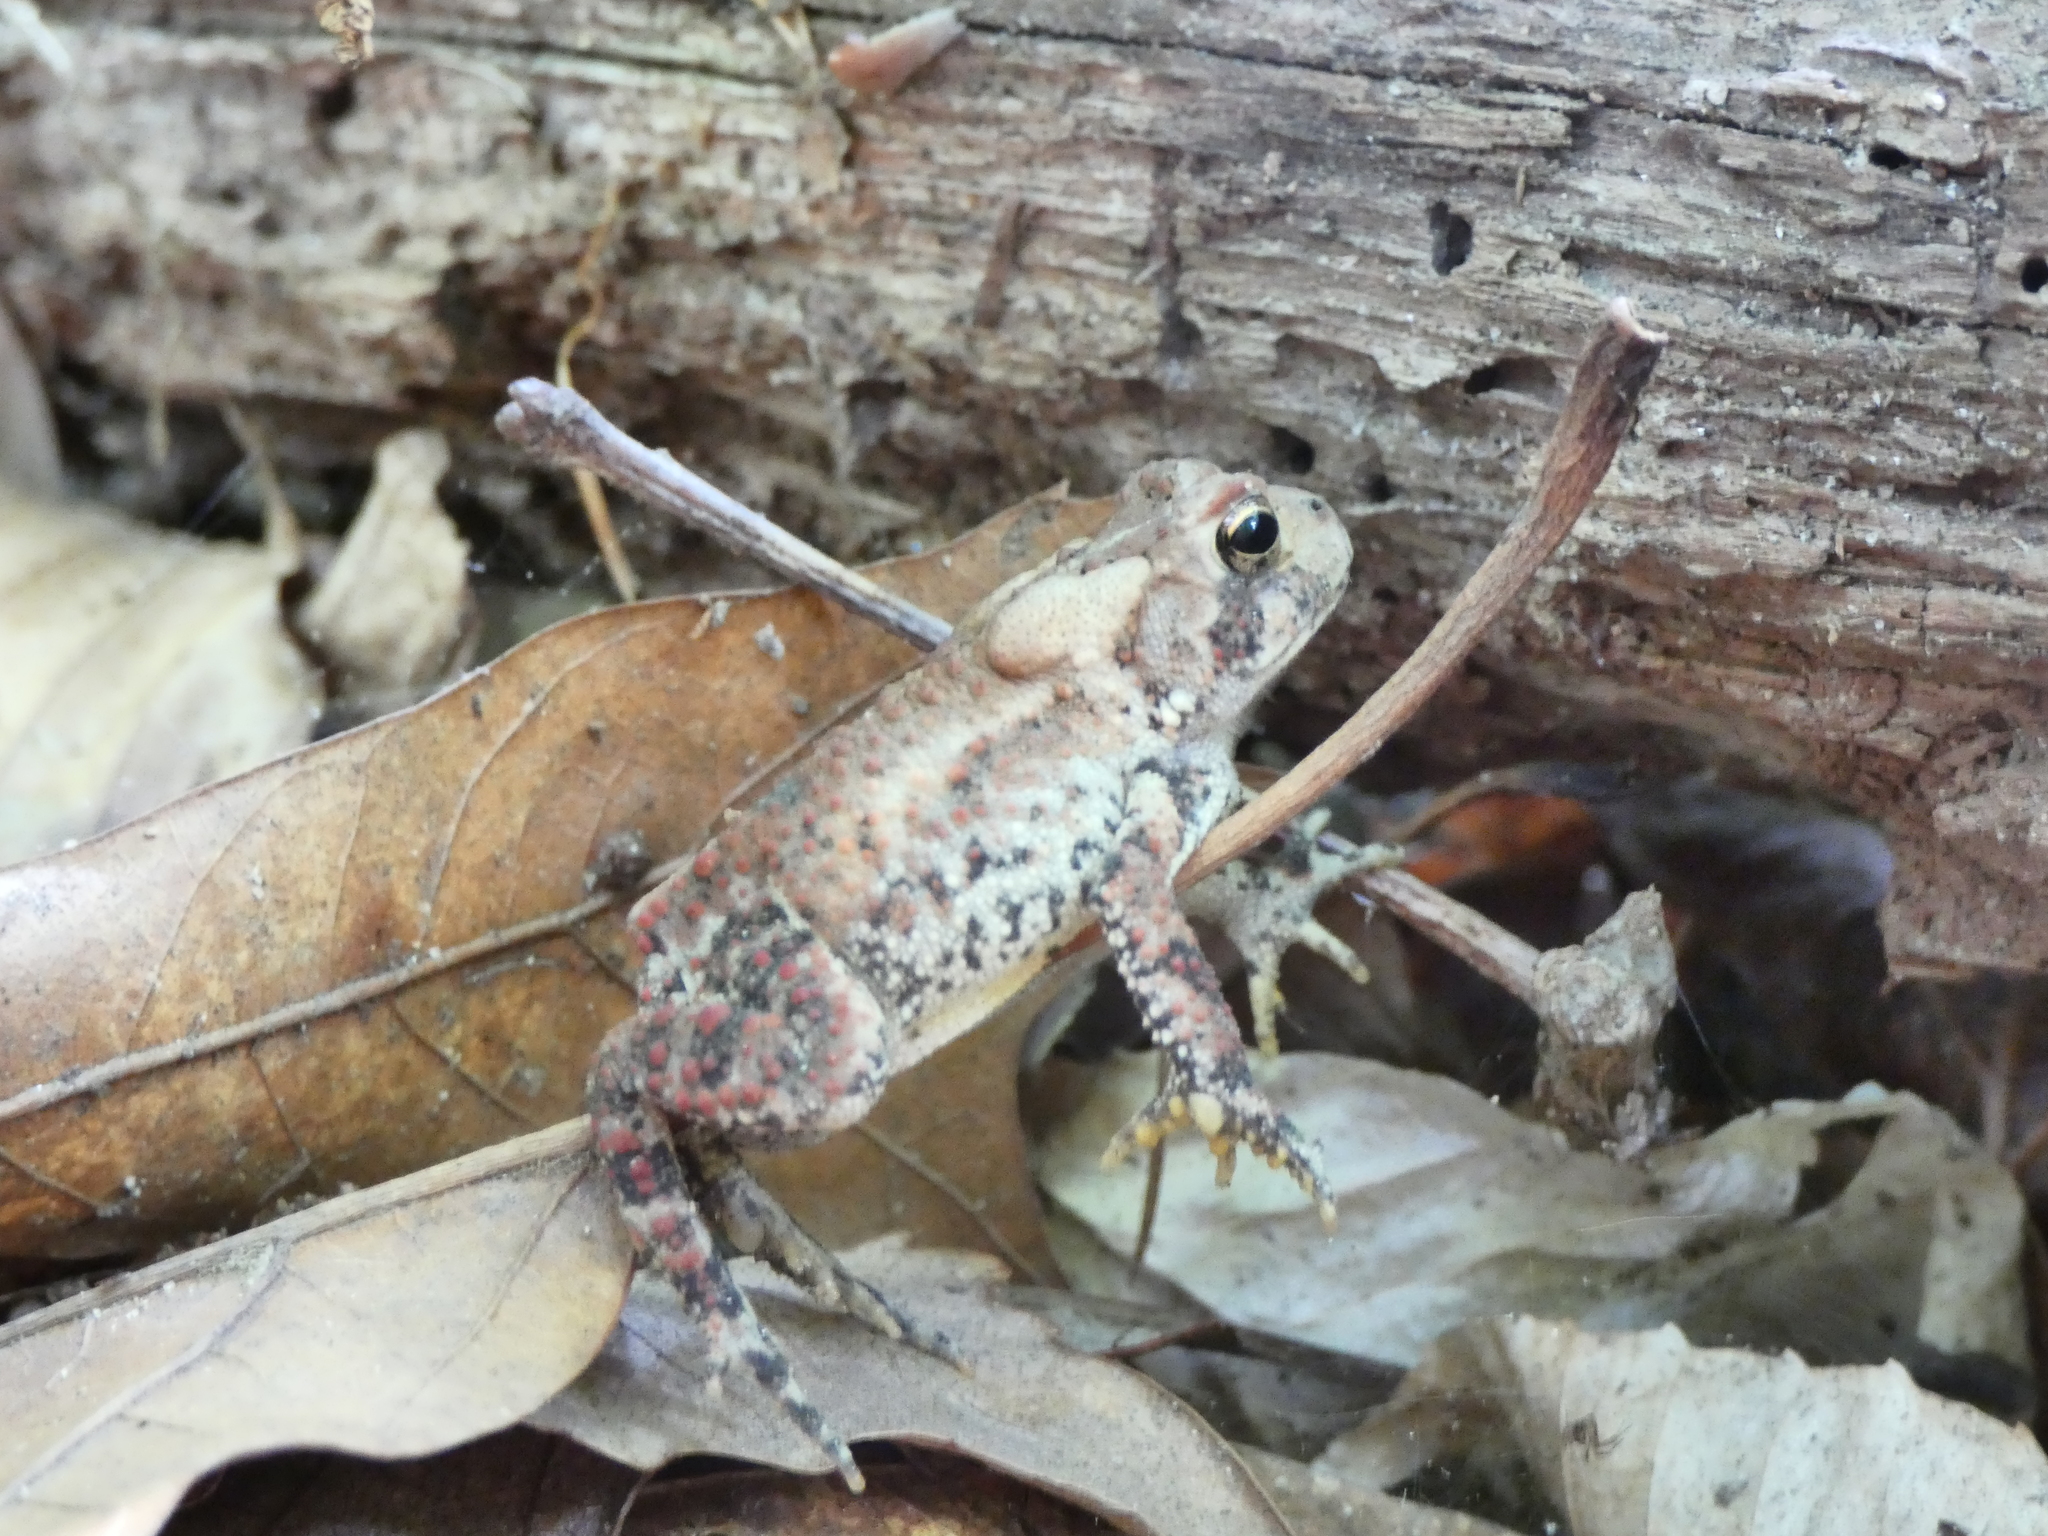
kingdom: Animalia
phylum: Chordata
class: Amphibia
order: Anura
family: Bufonidae
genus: Anaxyrus
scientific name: Anaxyrus americanus
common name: American toad
